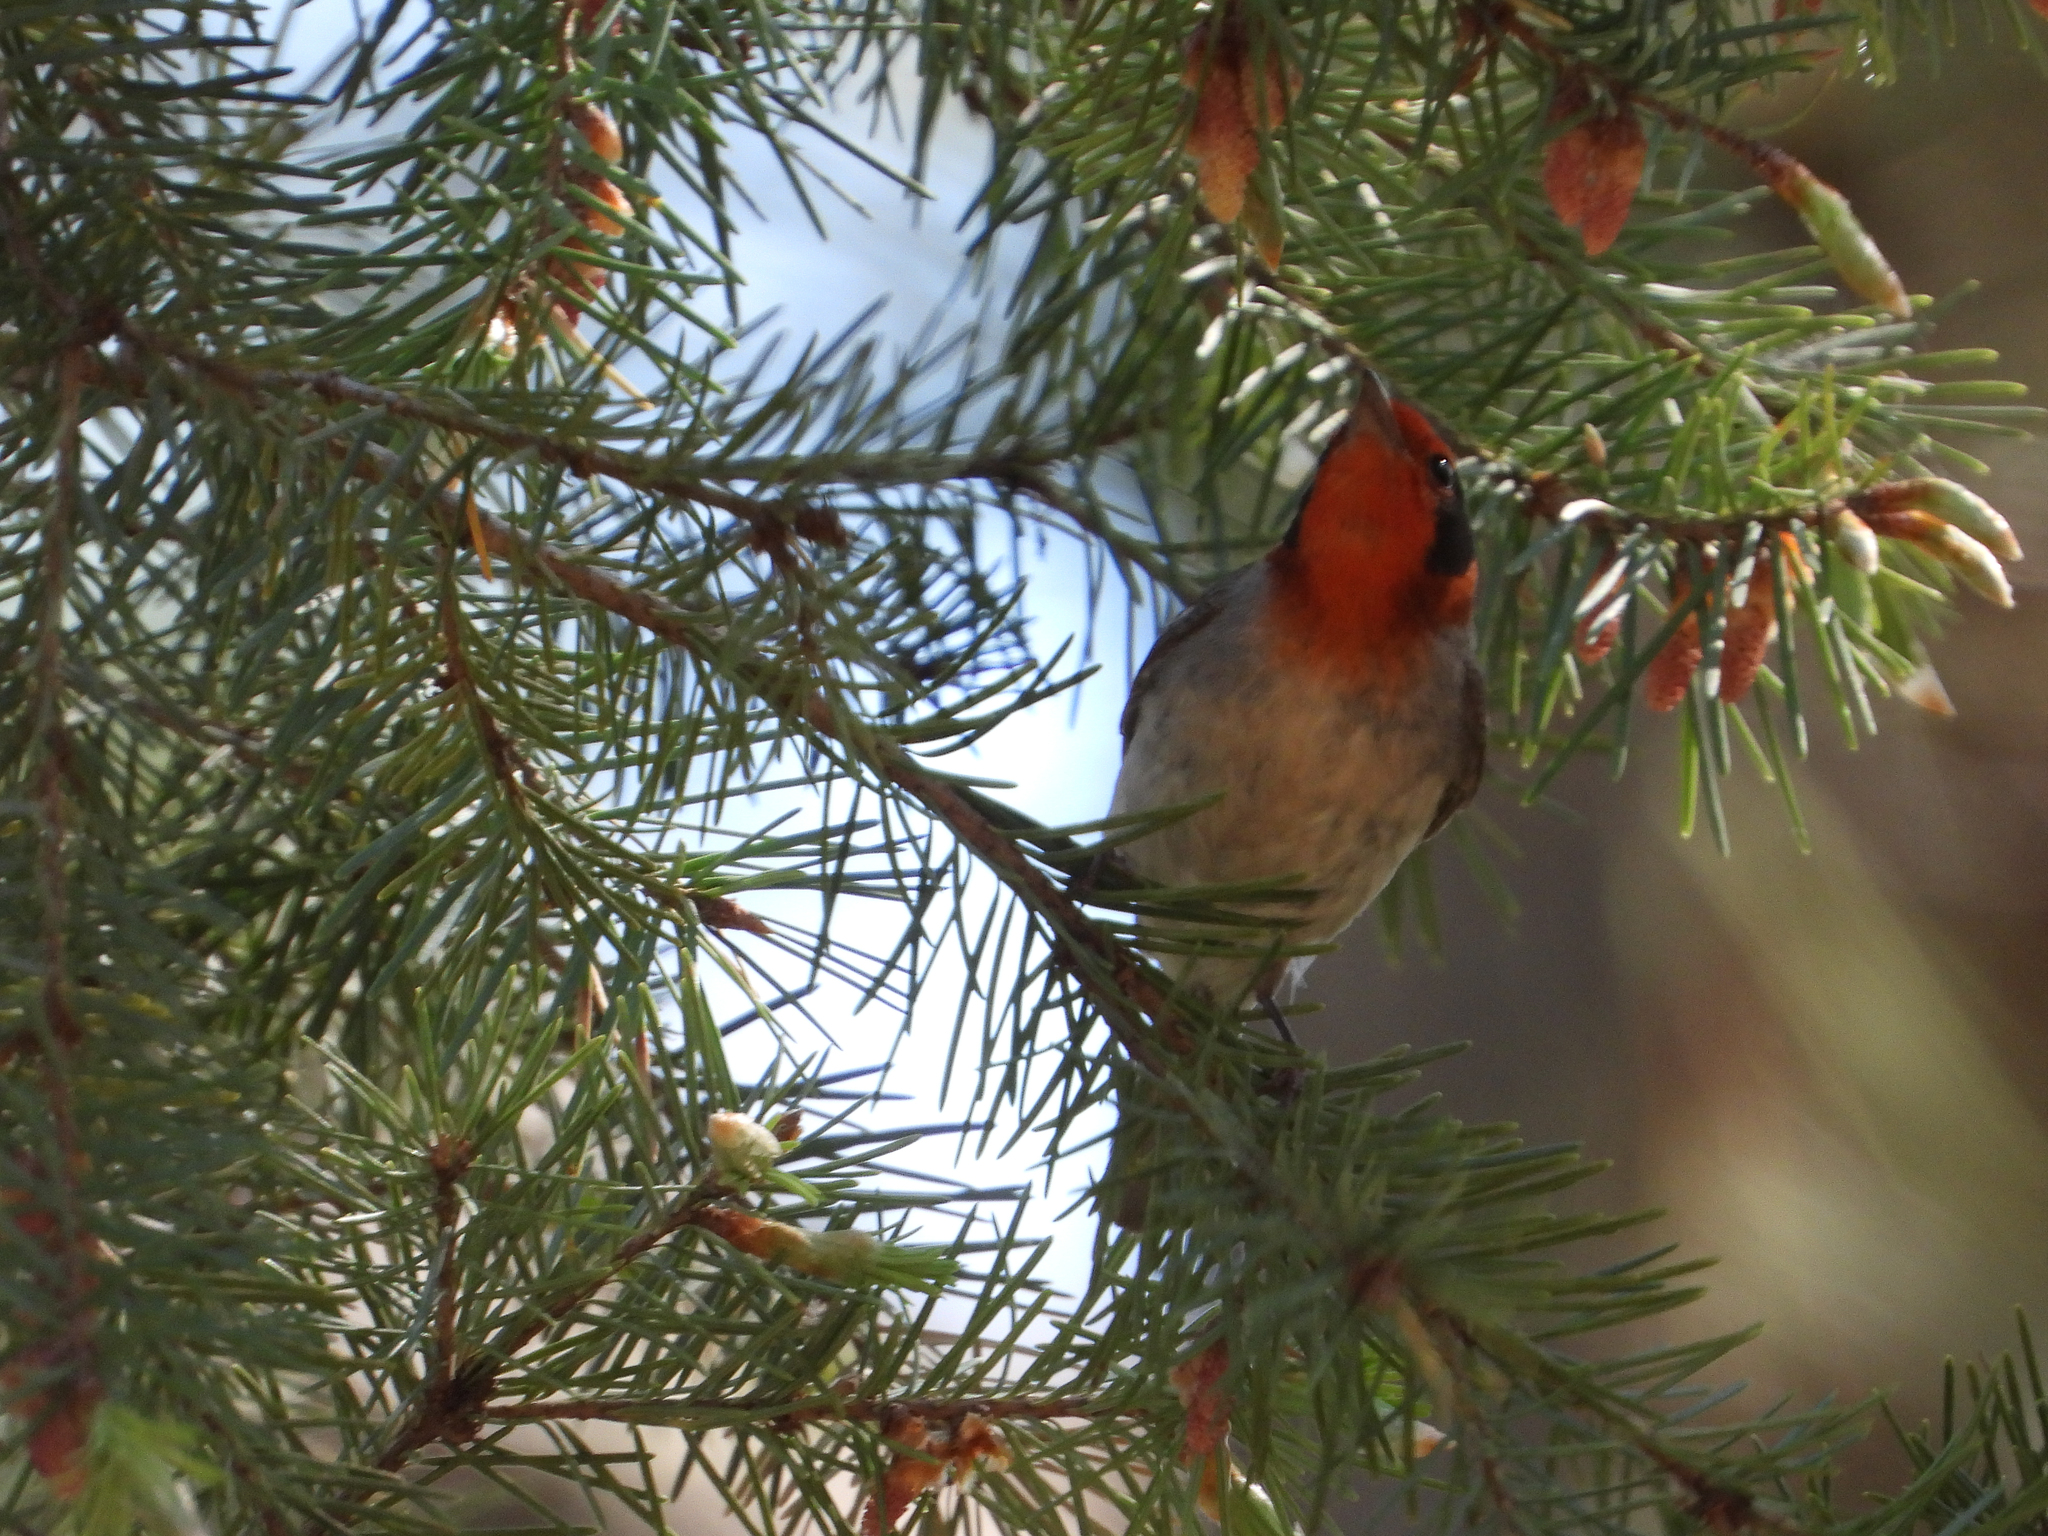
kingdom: Animalia
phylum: Chordata
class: Aves
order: Passeriformes
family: Parulidae
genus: Cardellina
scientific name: Cardellina rubrifrons
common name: Red-faced warbler
